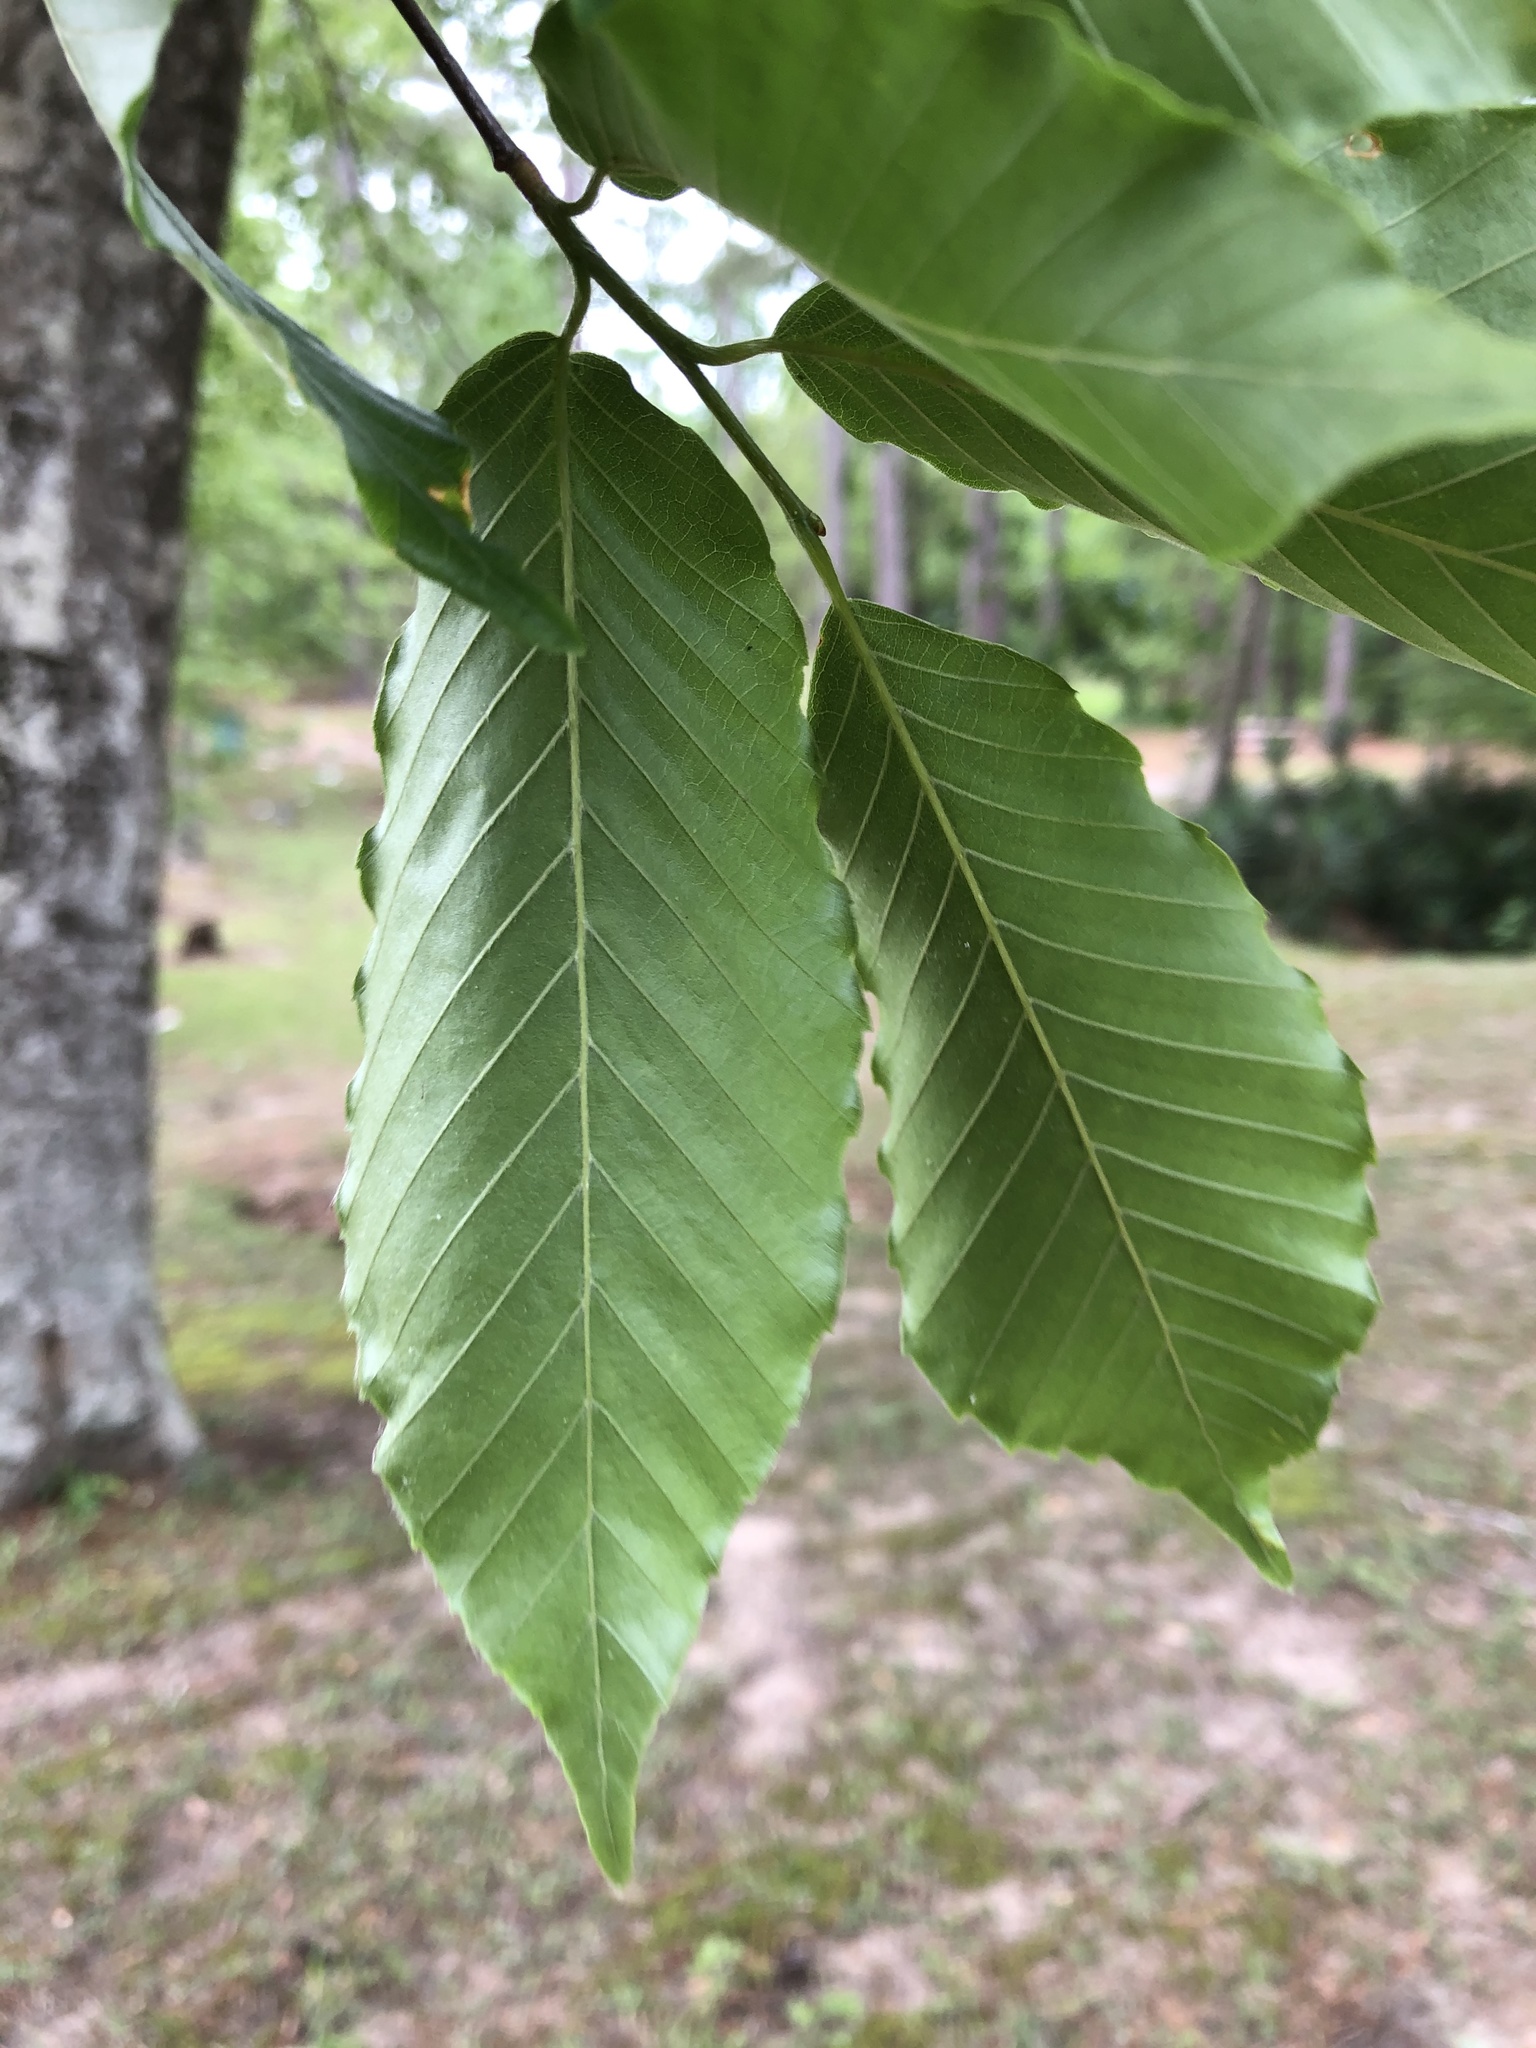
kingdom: Plantae
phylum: Tracheophyta
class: Magnoliopsida
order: Fagales
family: Fagaceae
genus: Fagus
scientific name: Fagus grandifolia
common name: American beech
